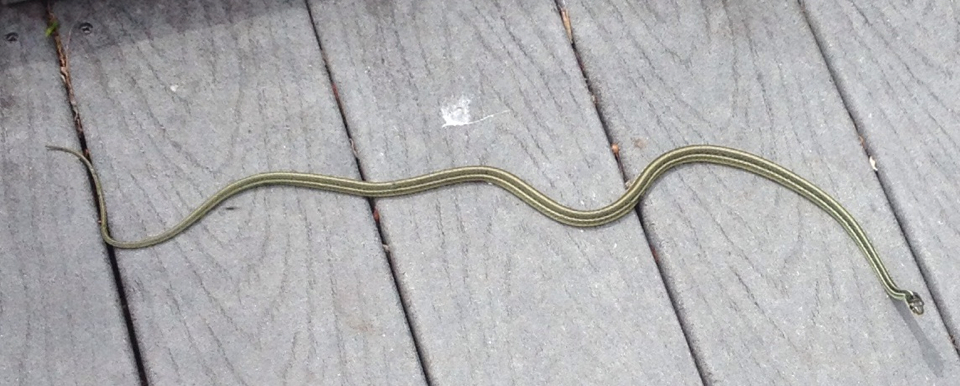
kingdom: Animalia
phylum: Chordata
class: Squamata
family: Colubridae
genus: Thamnophis
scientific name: Thamnophis proximus
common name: Western ribbon snake
